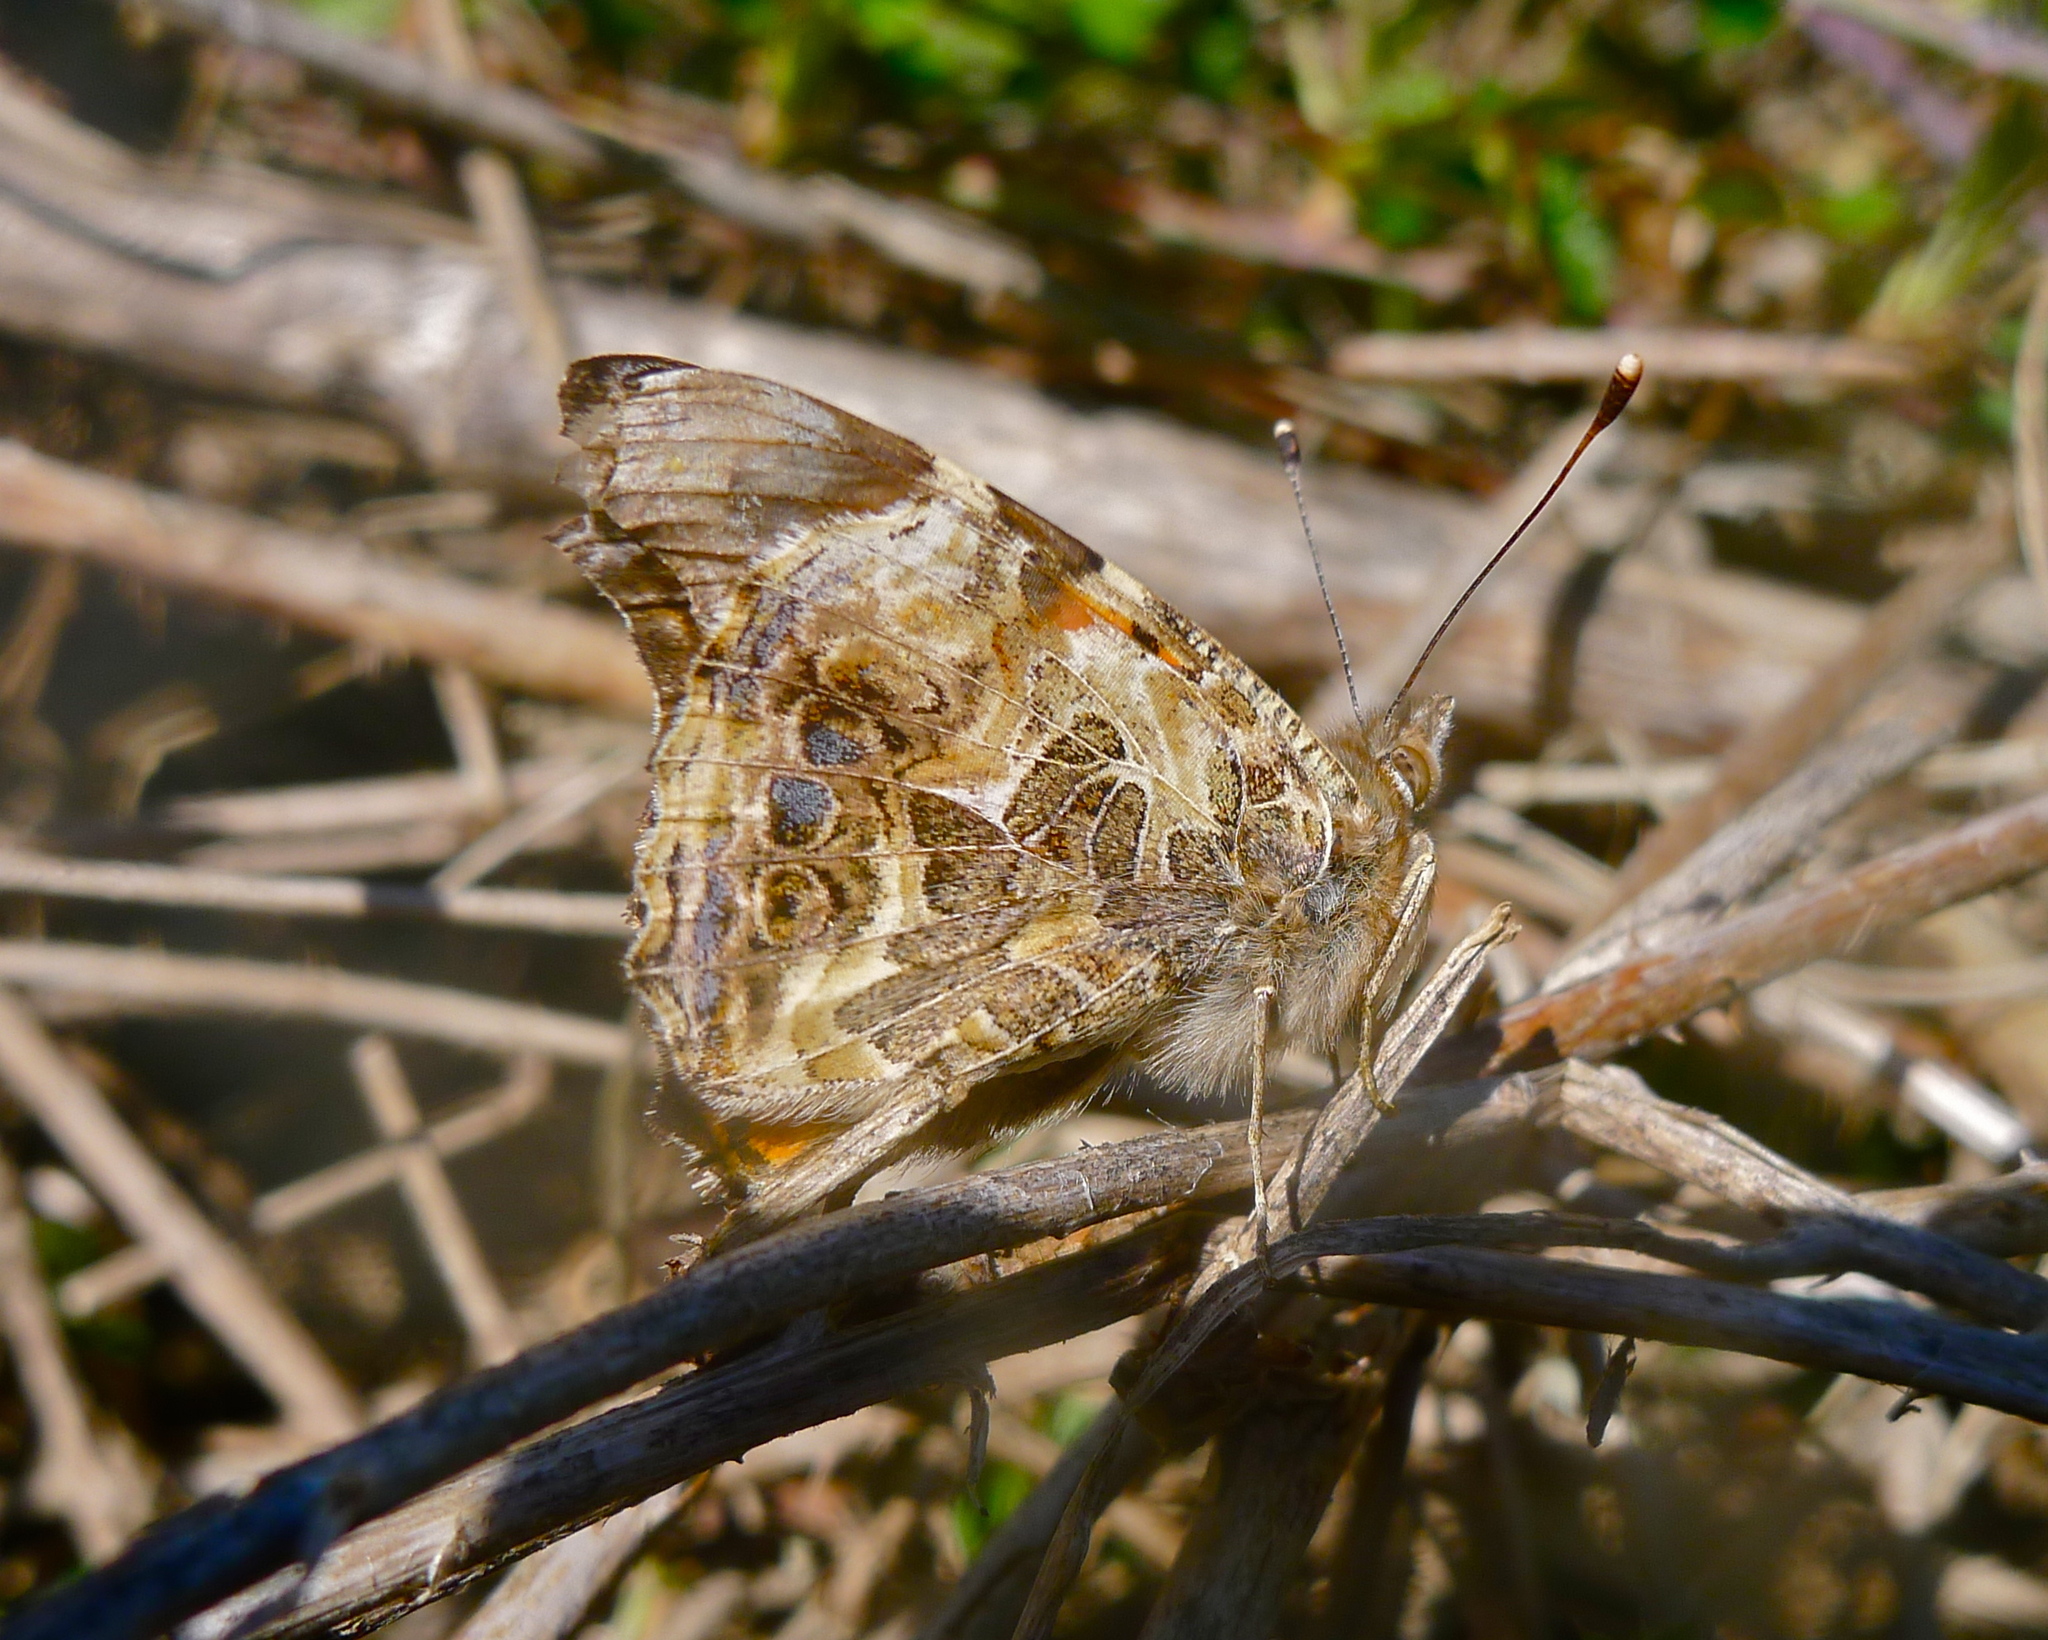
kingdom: Animalia
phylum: Arthropoda
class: Insecta
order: Lepidoptera
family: Nymphalidae
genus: Vanessa
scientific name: Vanessa annabella
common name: West coast lady
